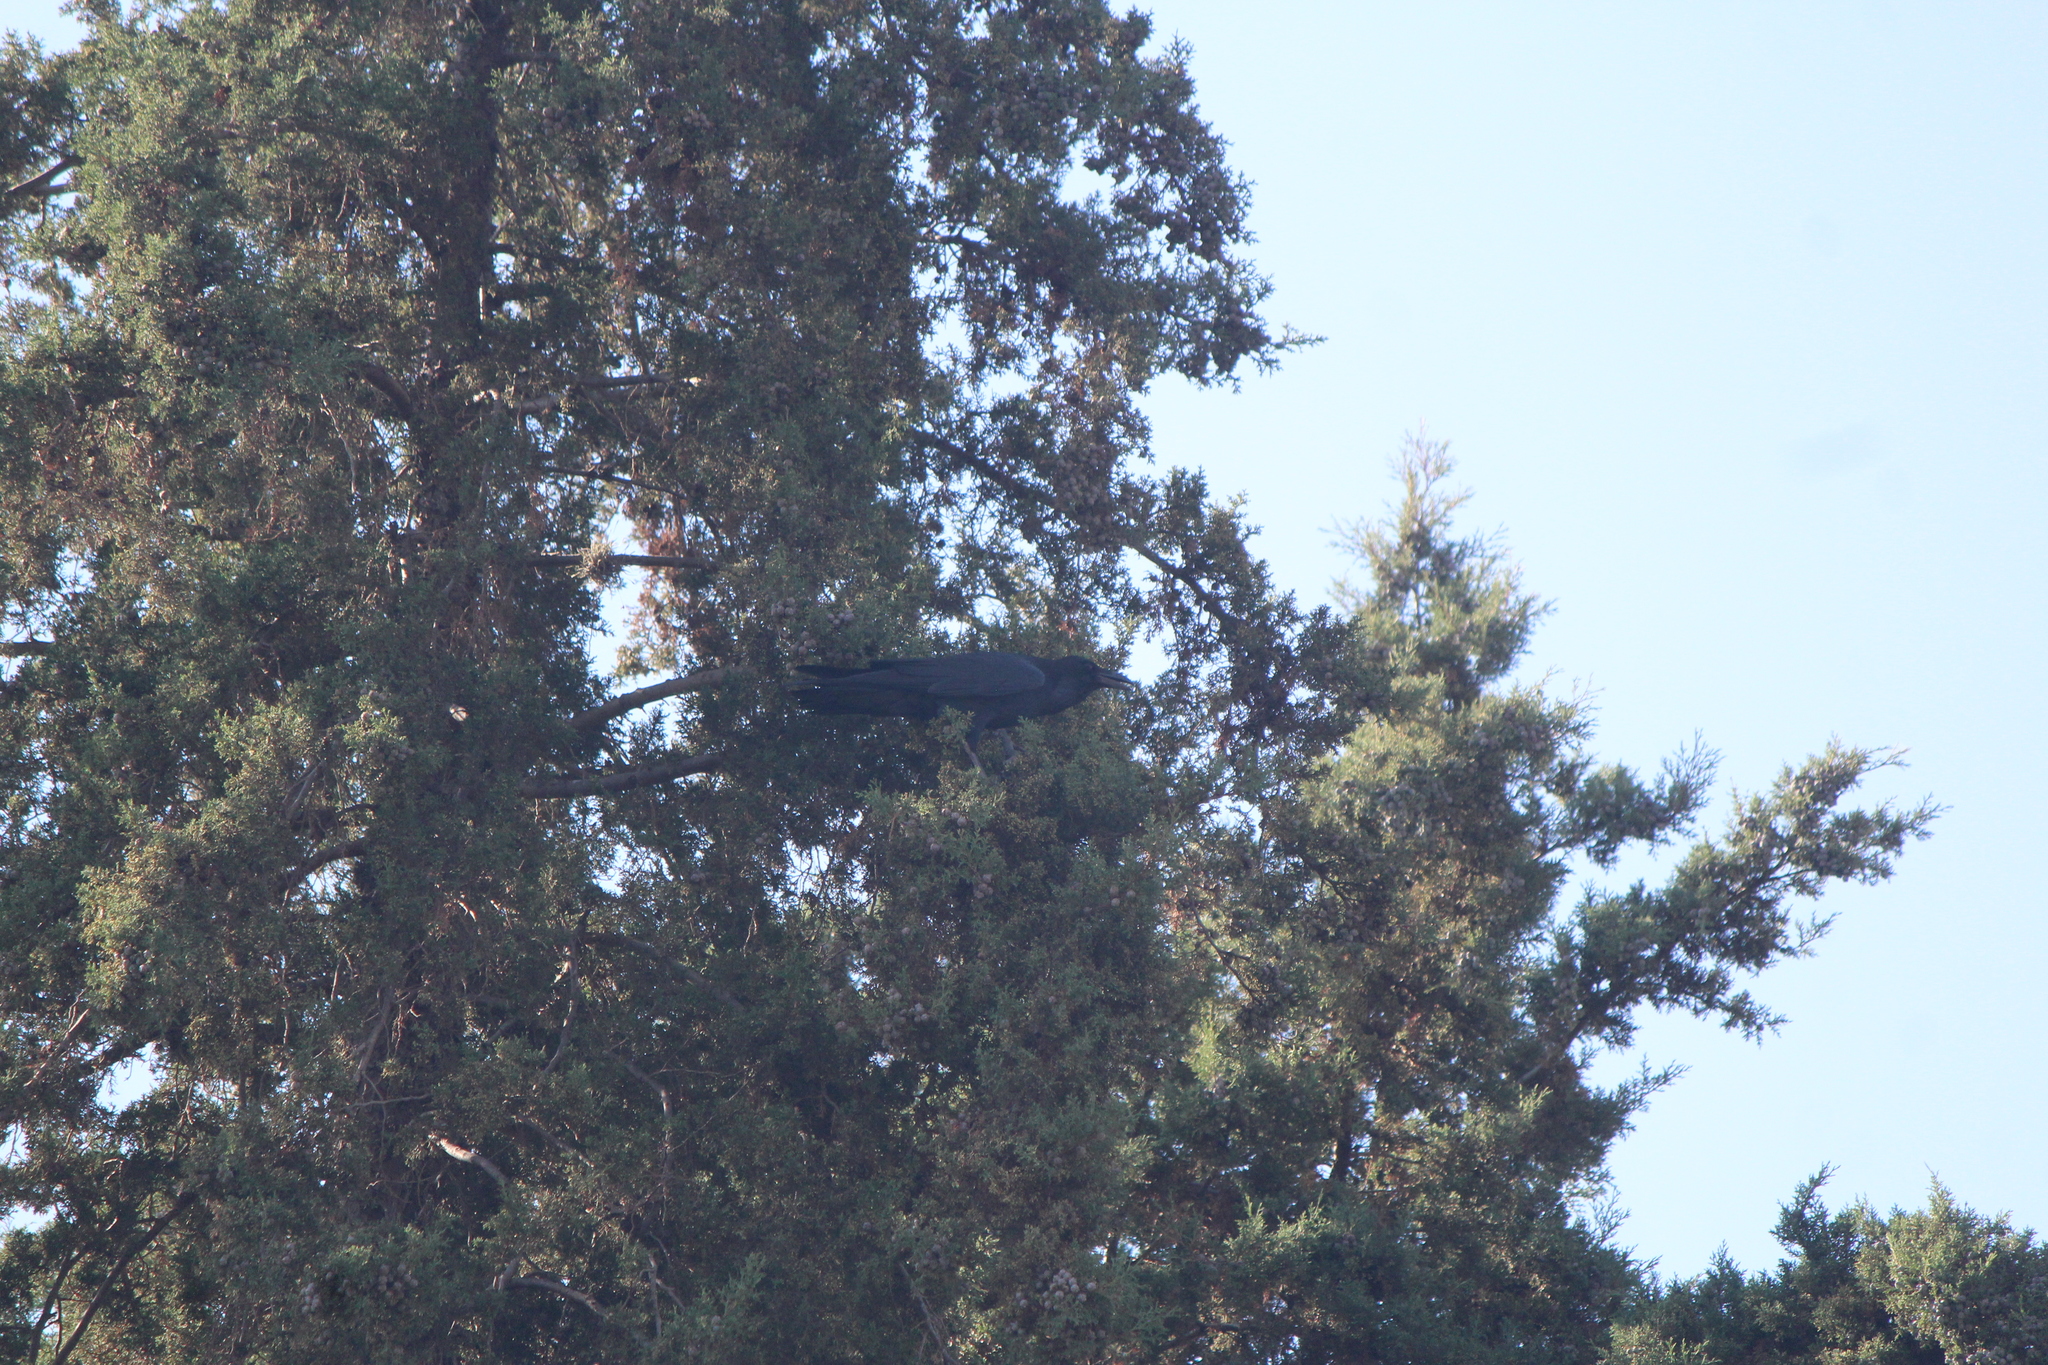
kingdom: Animalia
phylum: Chordata
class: Aves
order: Passeriformes
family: Corvidae
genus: Corvus
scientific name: Corvus corax
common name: Common raven
